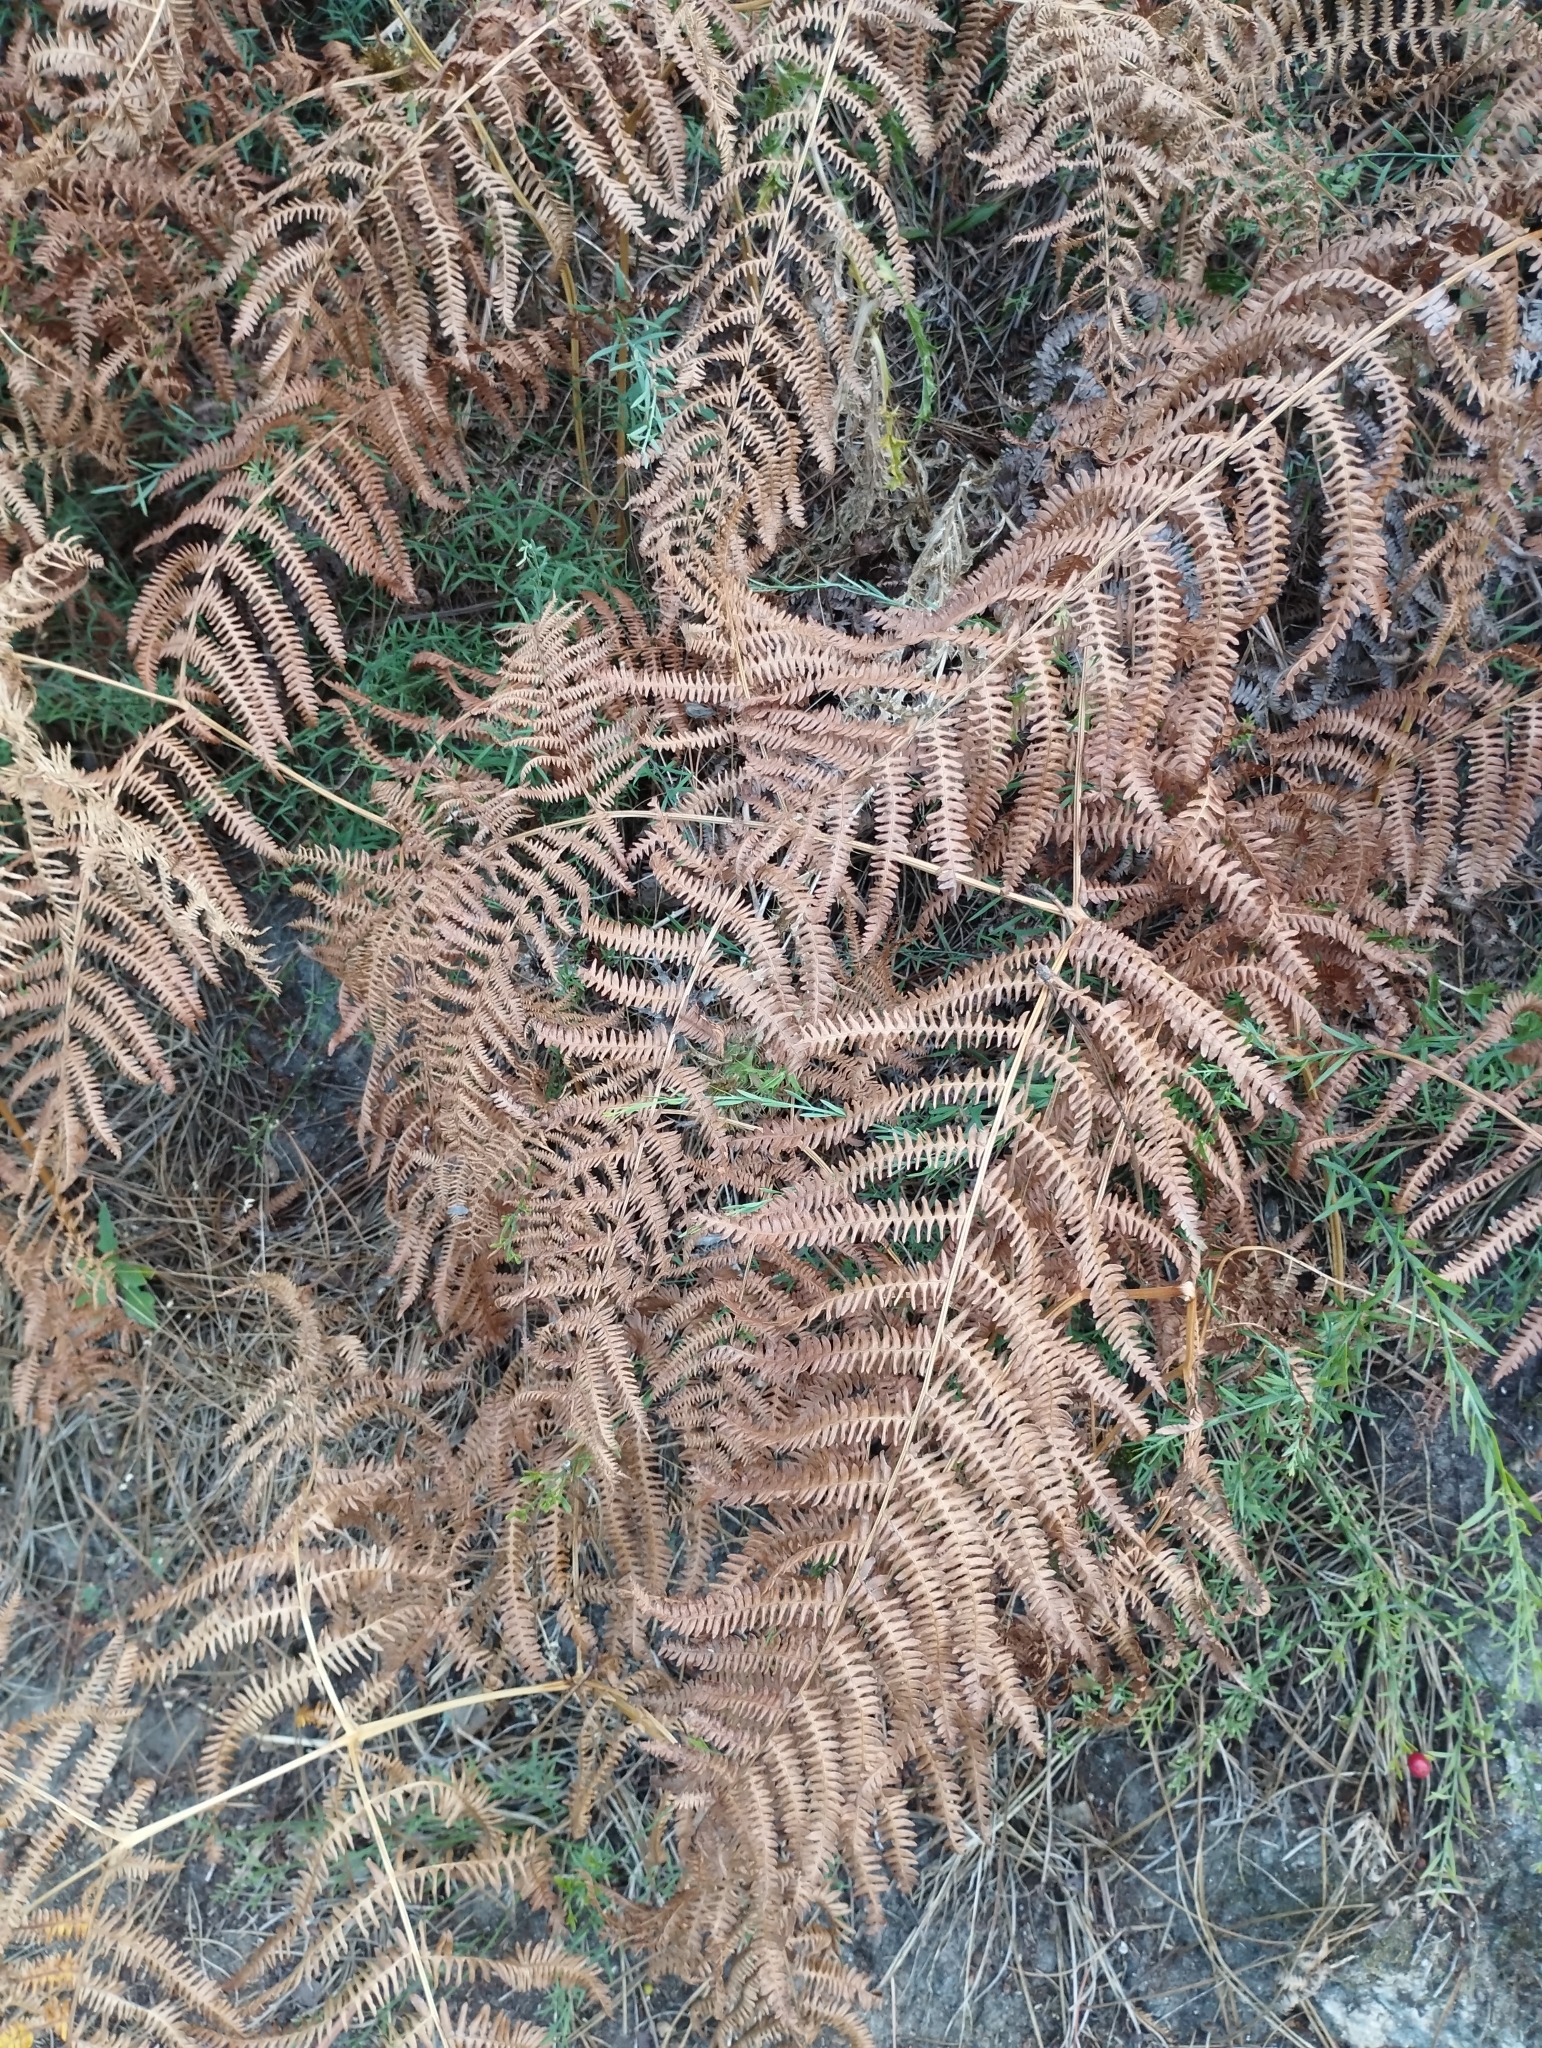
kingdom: Plantae
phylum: Tracheophyta
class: Polypodiopsida
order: Polypodiales
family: Dennstaedtiaceae
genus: Pteridium
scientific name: Pteridium aquilinum
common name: Bracken
